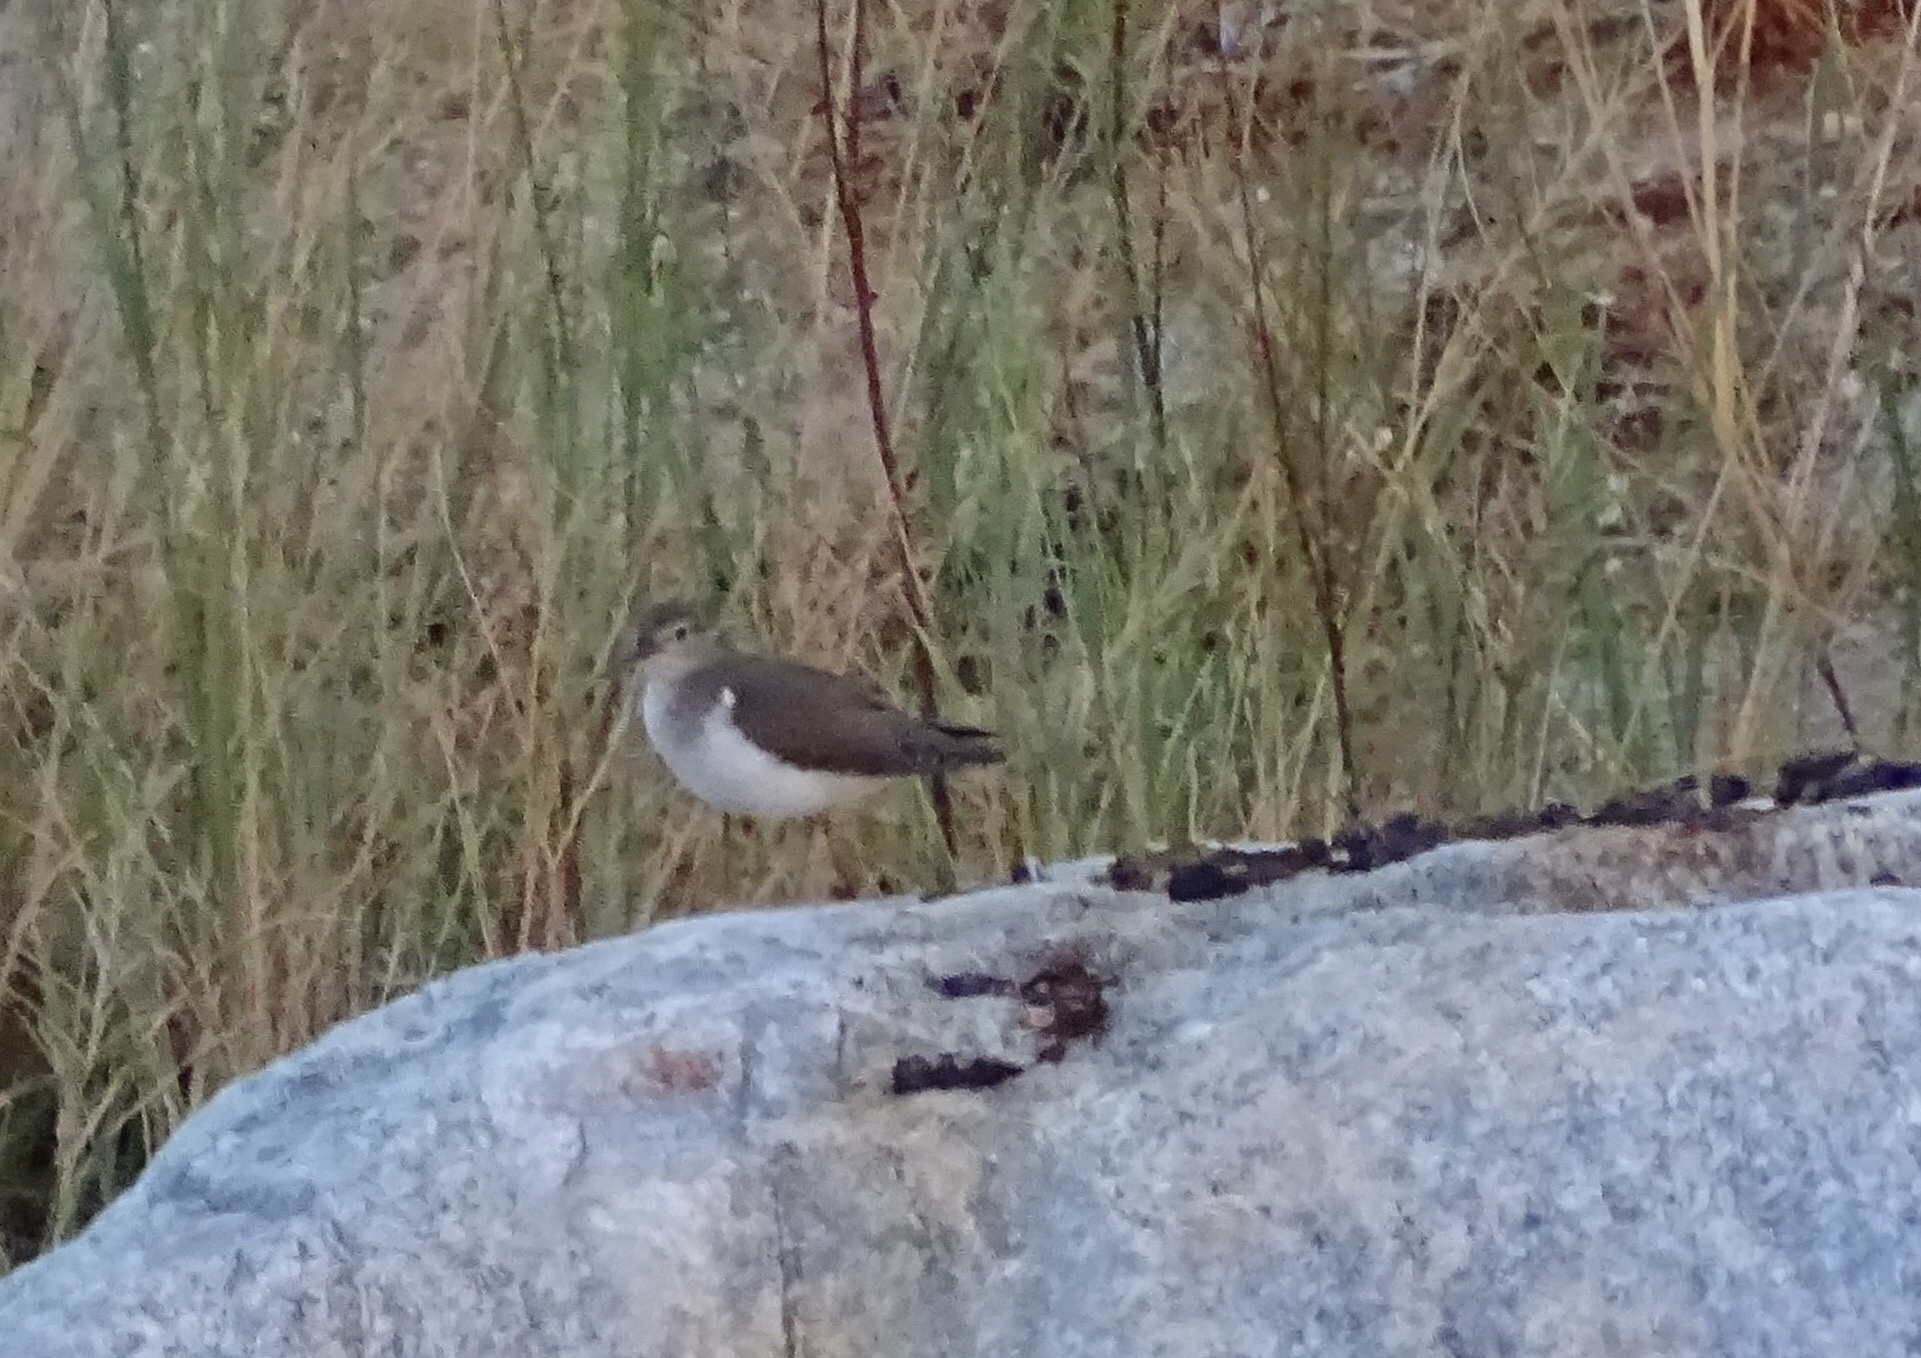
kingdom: Animalia
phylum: Chordata
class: Aves
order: Charadriiformes
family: Scolopacidae
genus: Actitis
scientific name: Actitis macularius
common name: Spotted sandpiper
